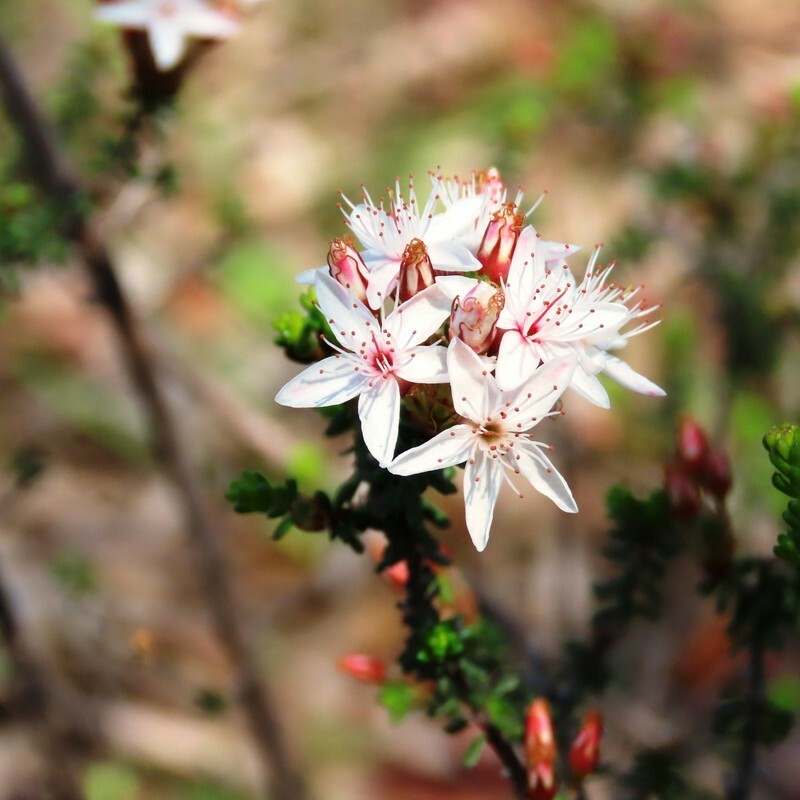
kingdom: Plantae
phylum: Tracheophyta
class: Magnoliopsida
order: Myrtales
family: Myrtaceae
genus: Calytrix
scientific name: Calytrix tetragona
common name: Common fringe myrtle
